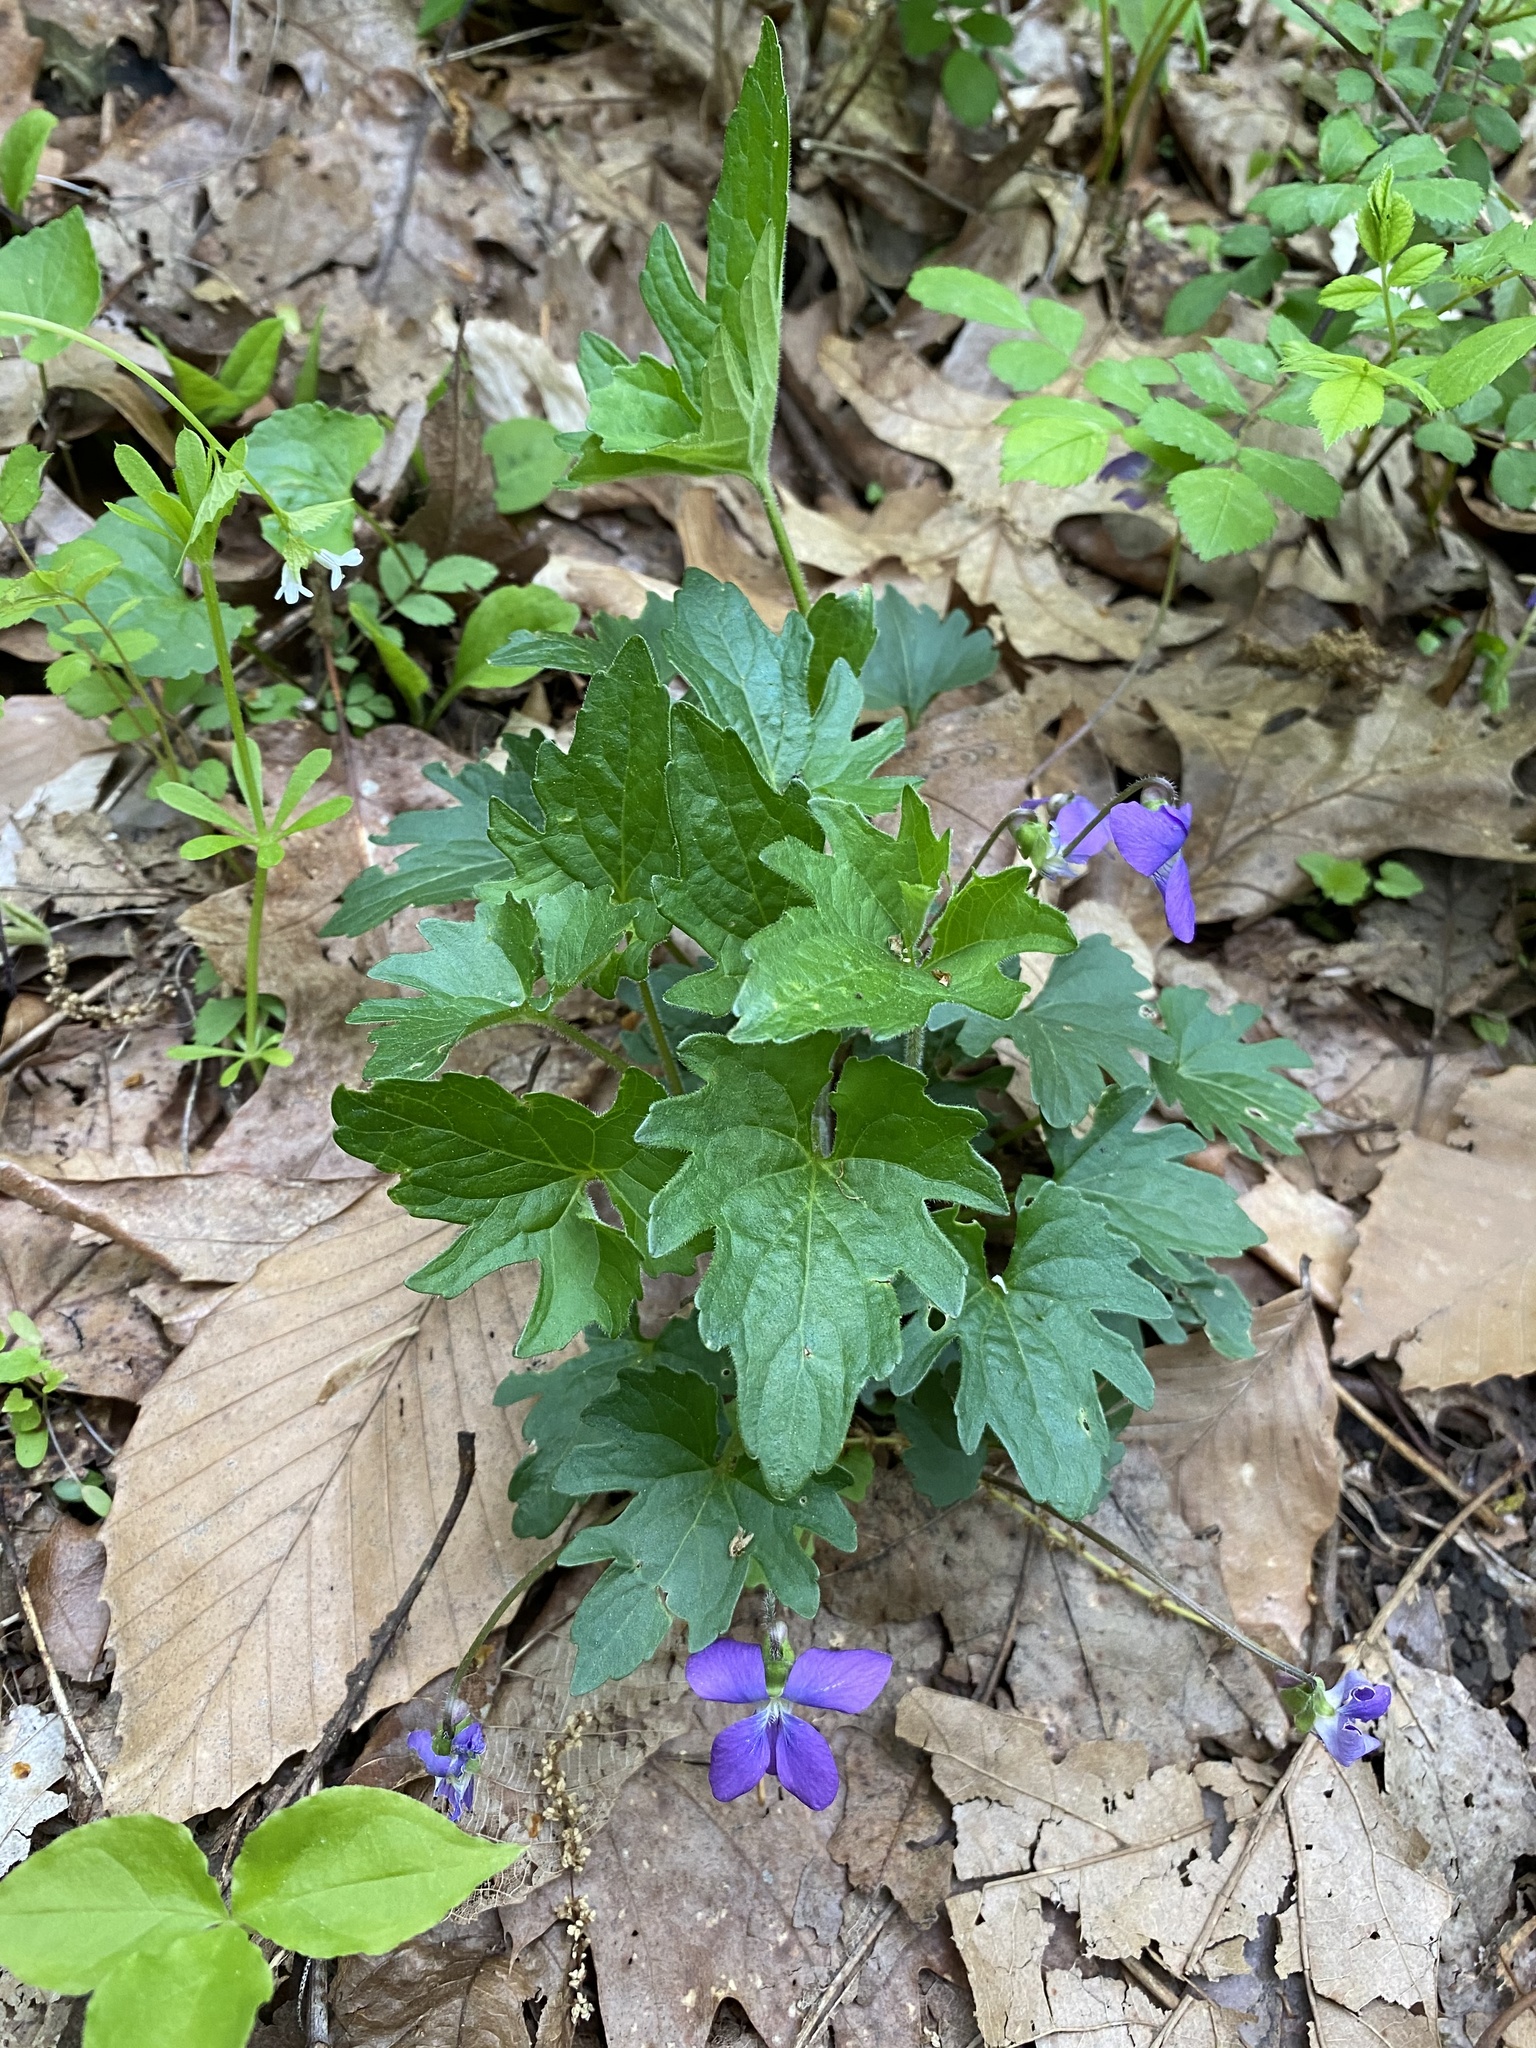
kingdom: Plantae
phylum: Tracheophyta
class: Magnoliopsida
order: Malpighiales
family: Violaceae
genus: Viola
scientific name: Viola subsinuata
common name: Wood violet
